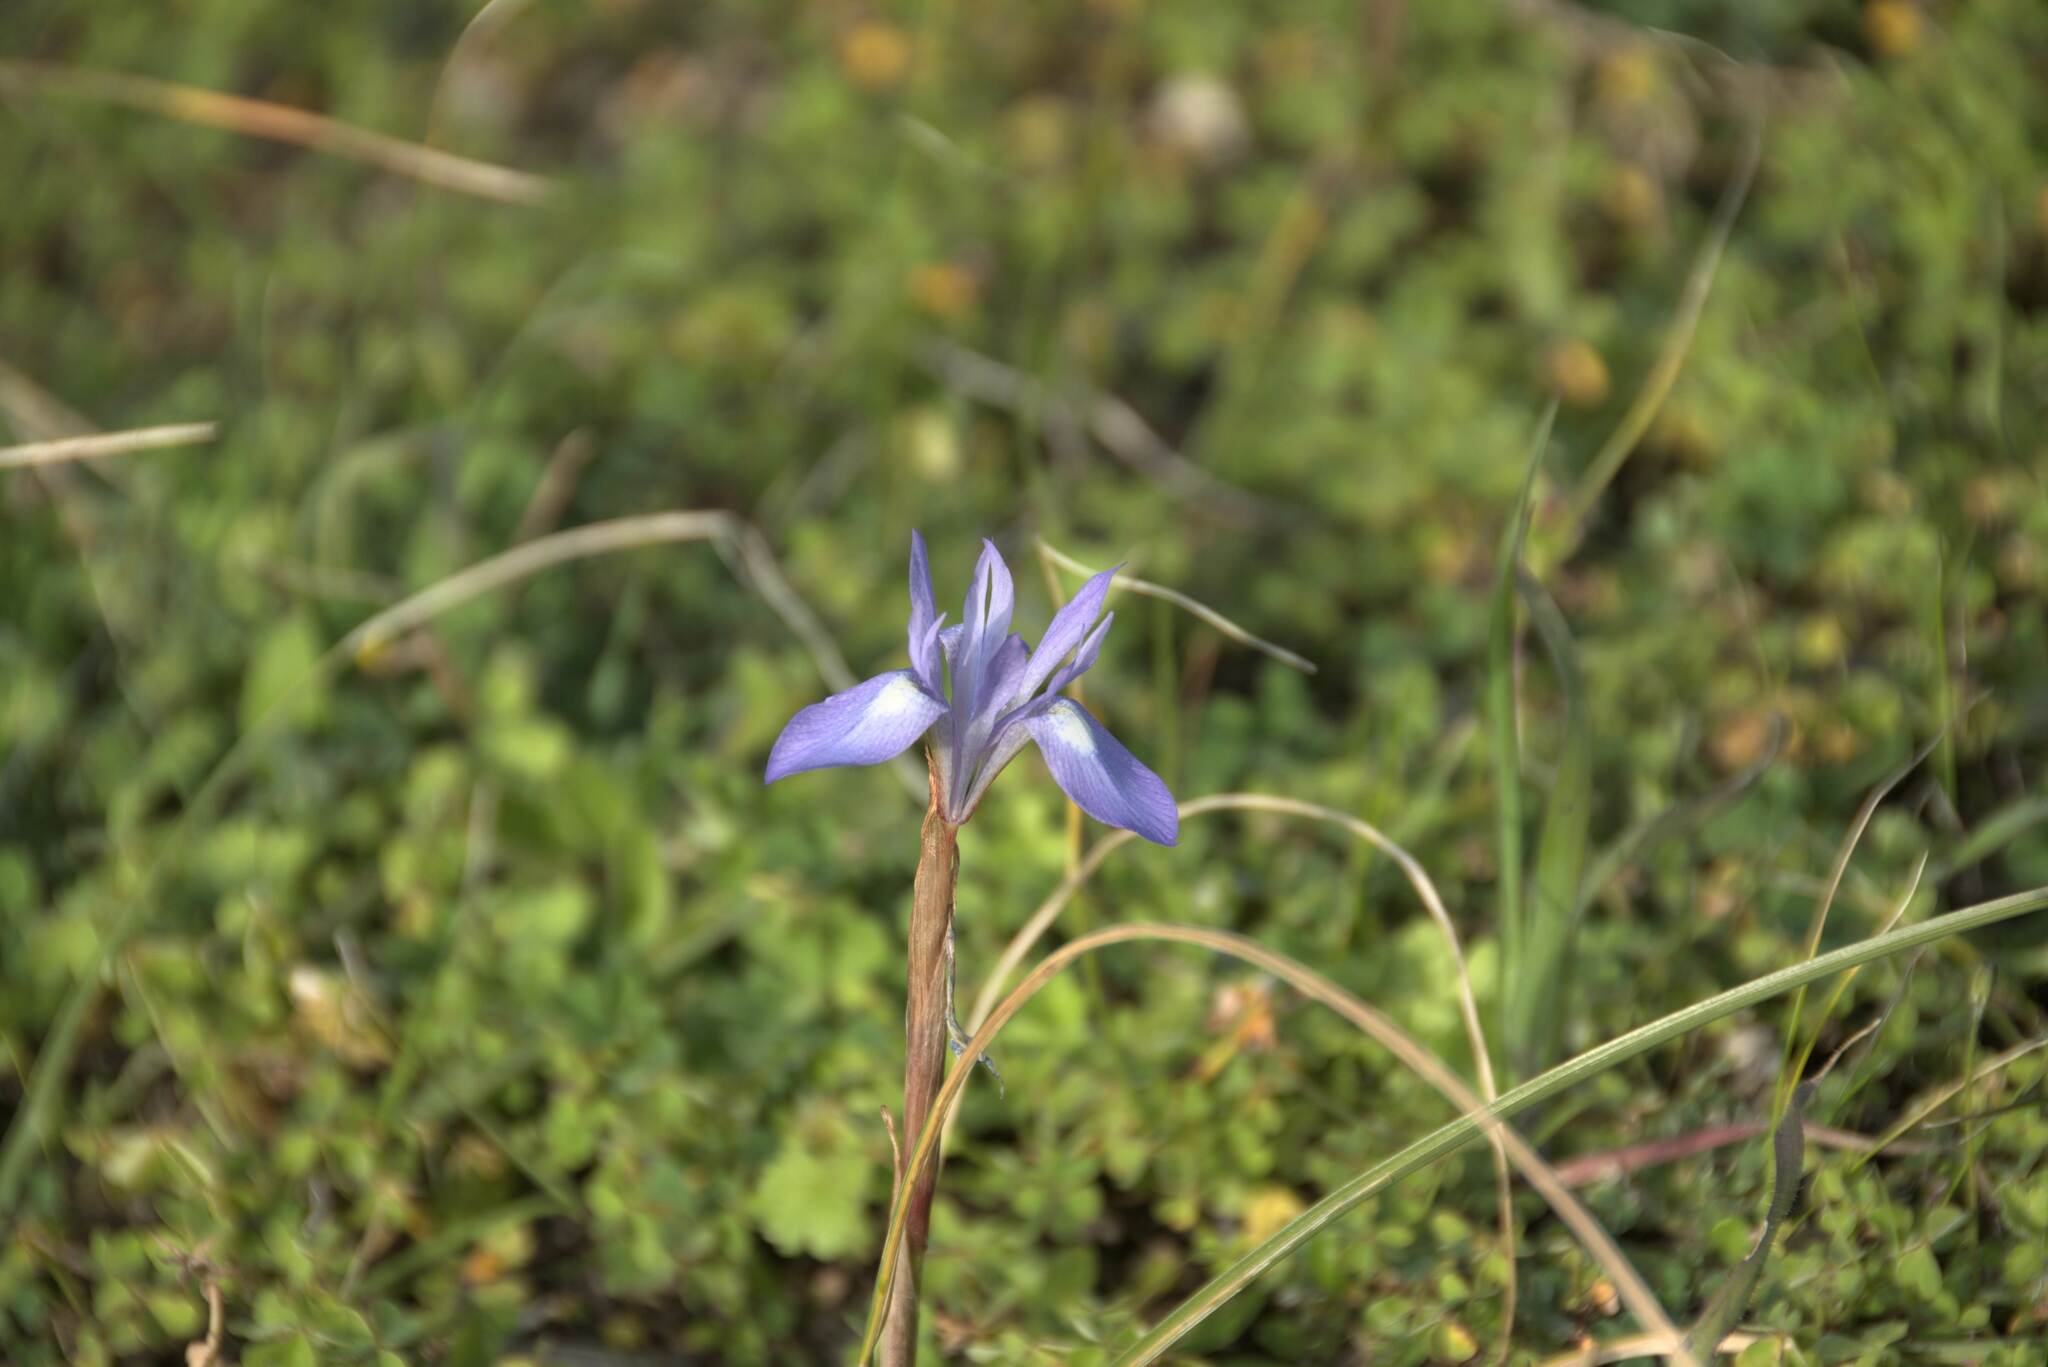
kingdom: Plantae
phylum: Tracheophyta
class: Liliopsida
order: Asparagales
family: Iridaceae
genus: Moraea
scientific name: Moraea sisyrinchium
